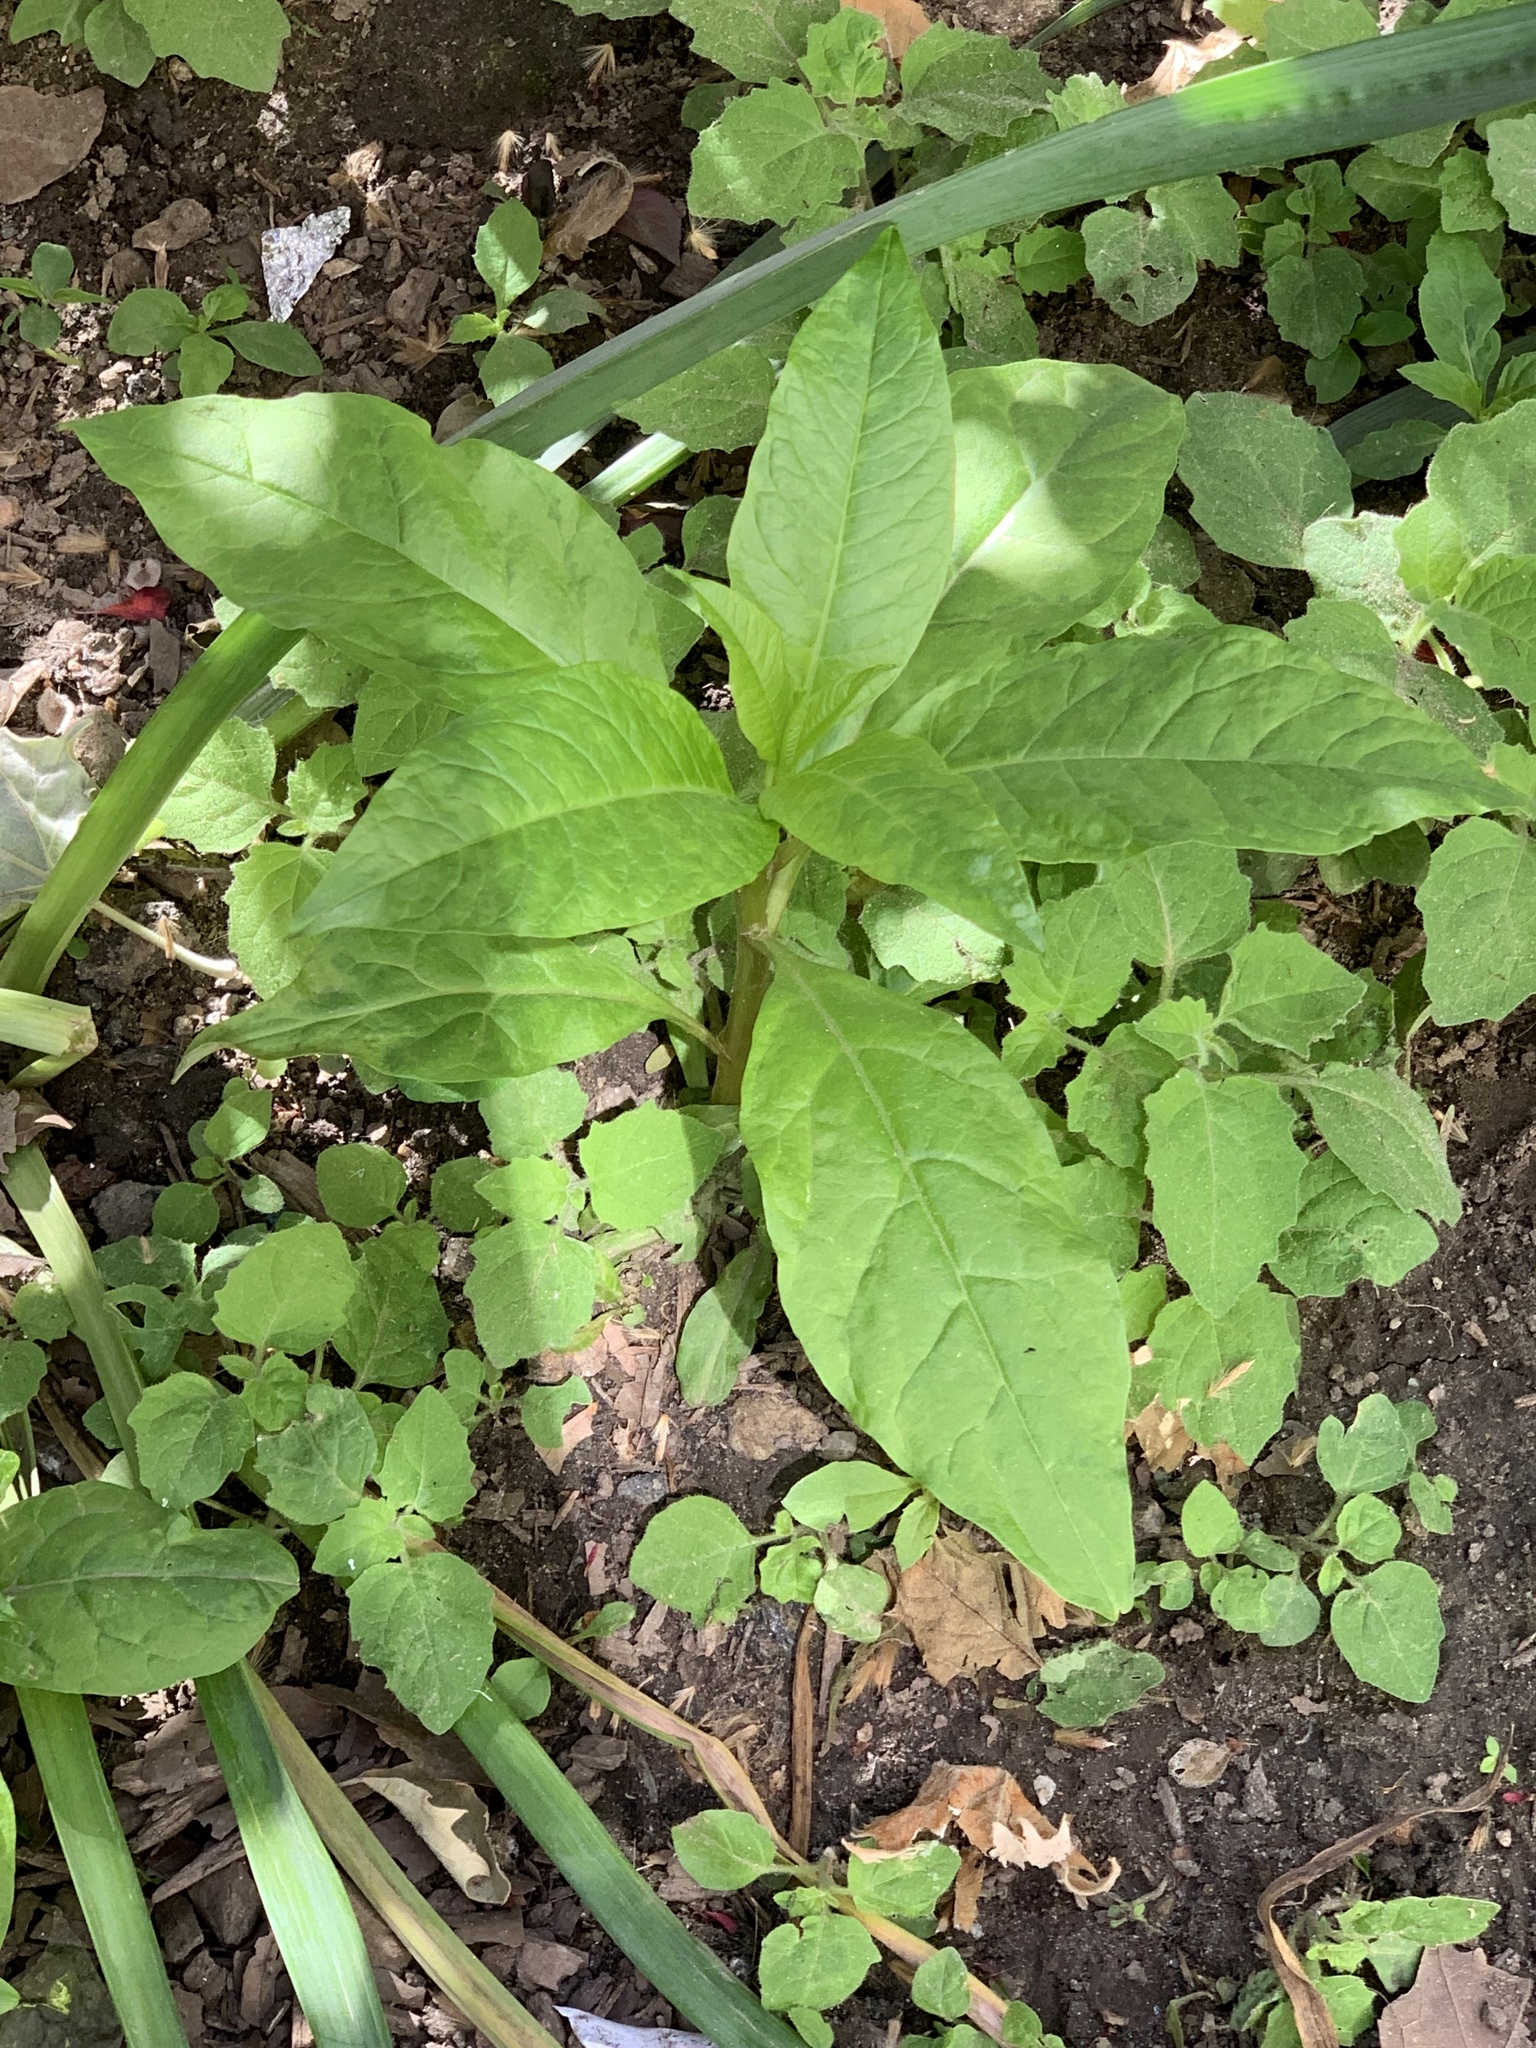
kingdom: Plantae
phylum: Tracheophyta
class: Magnoliopsida
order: Caryophyllales
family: Phytolaccaceae
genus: Phytolacca
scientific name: Phytolacca americana
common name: American pokeweed
